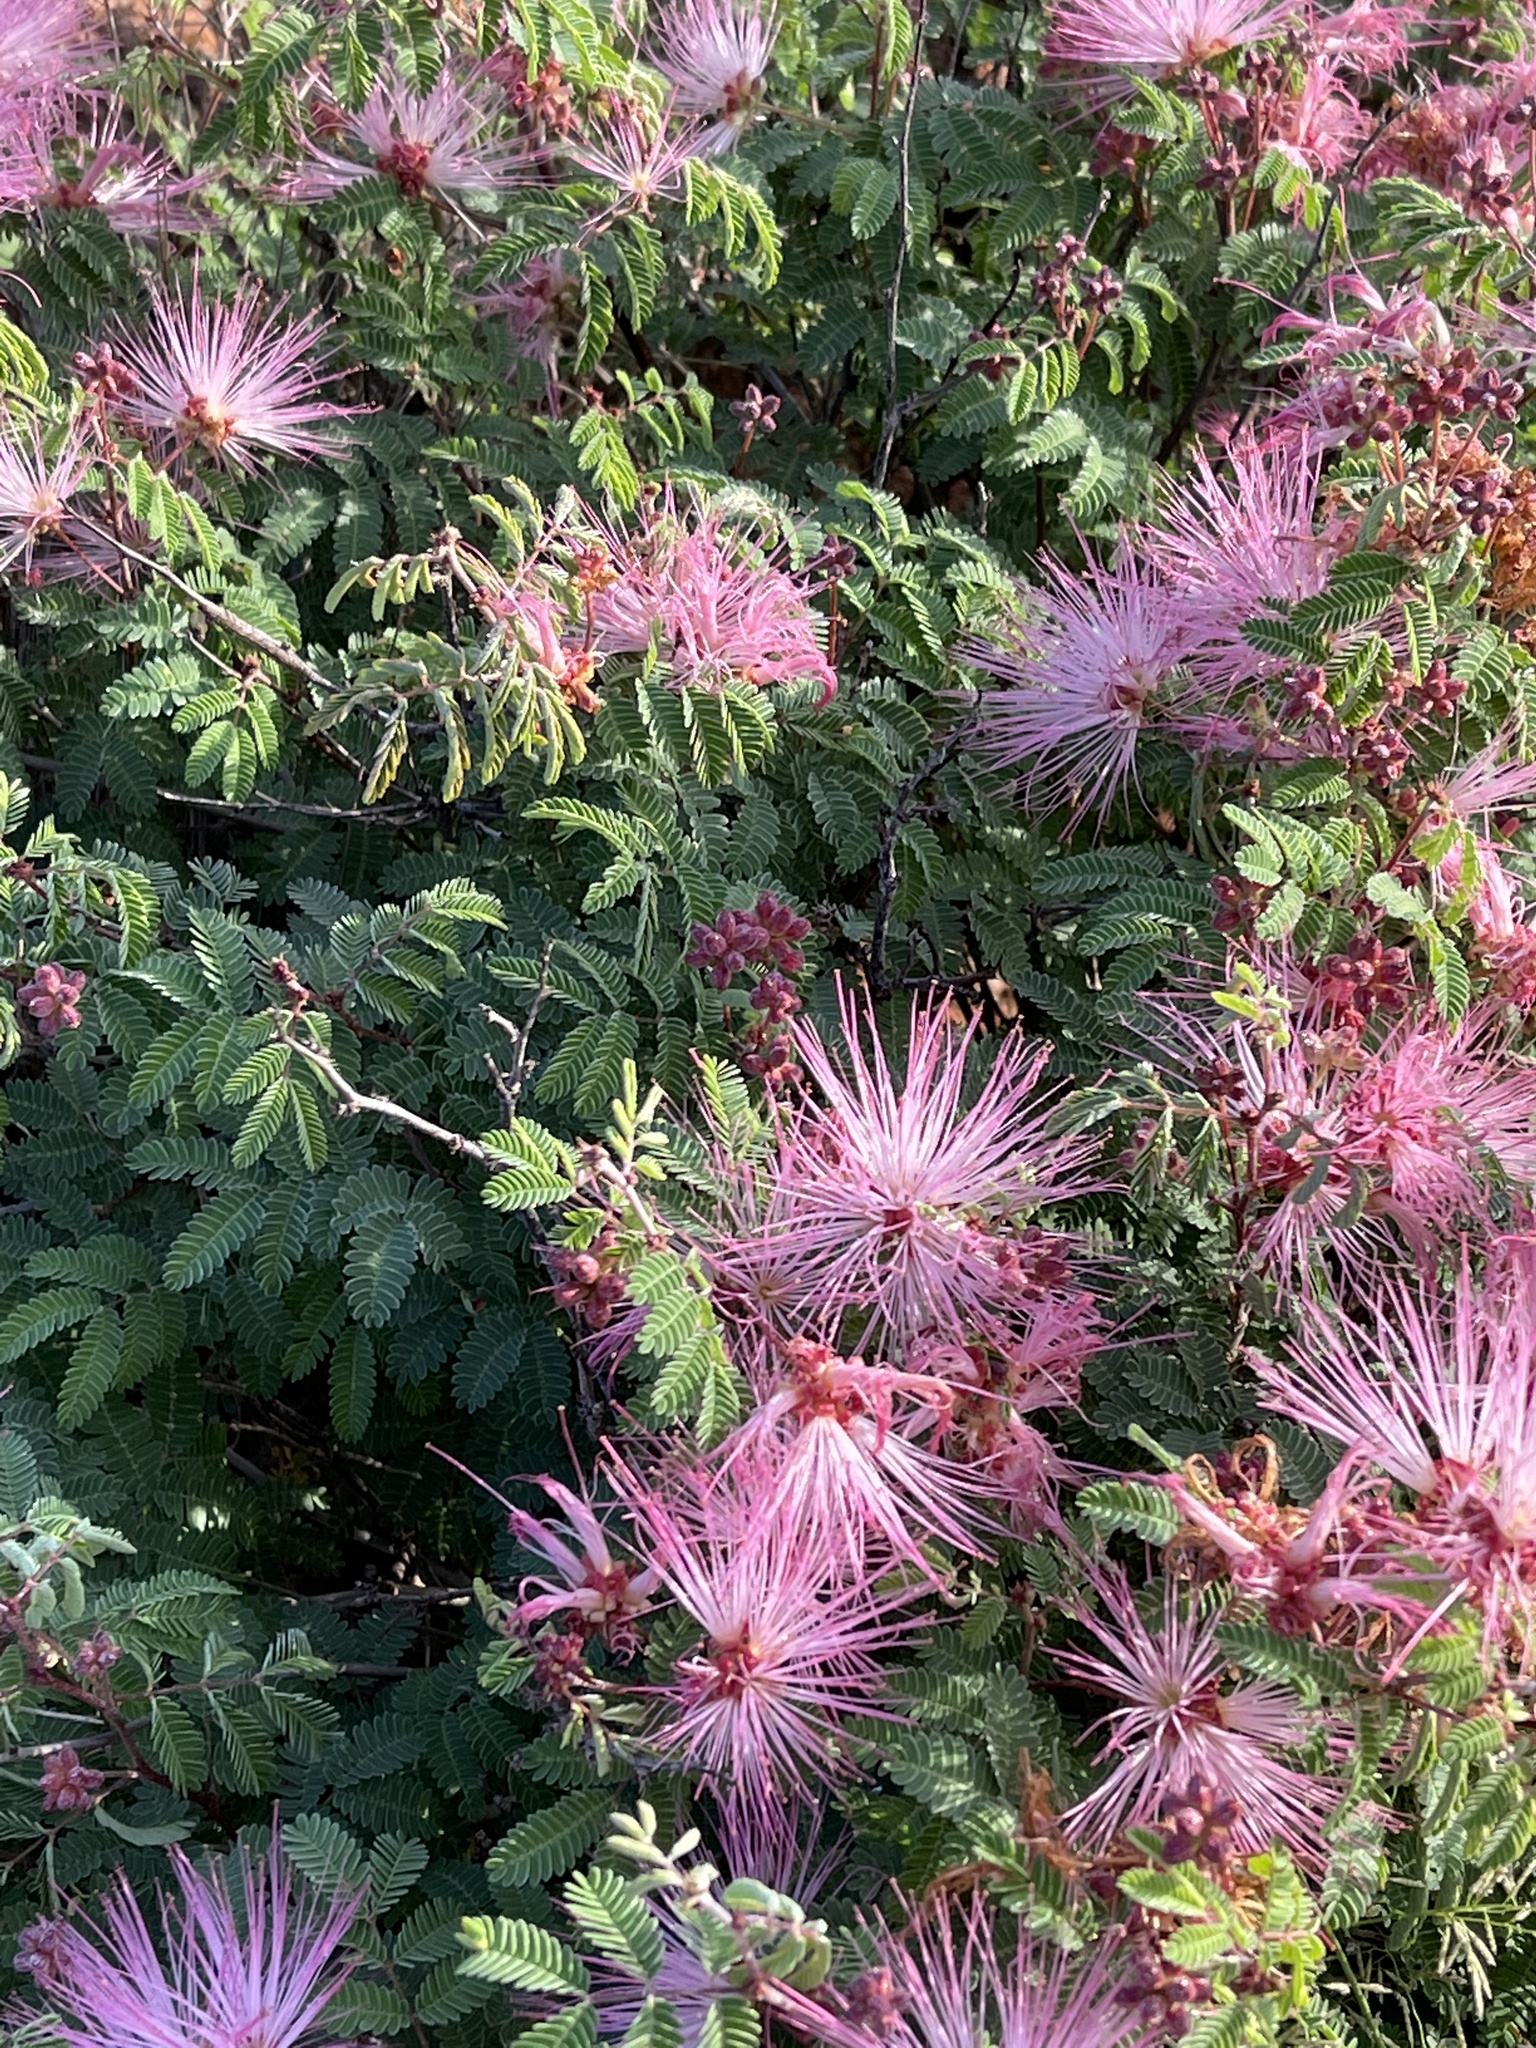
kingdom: Plantae
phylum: Tracheophyta
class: Magnoliopsida
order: Fabales
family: Fabaceae
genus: Calliandra
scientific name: Calliandra eriophylla
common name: Fairy-duster
